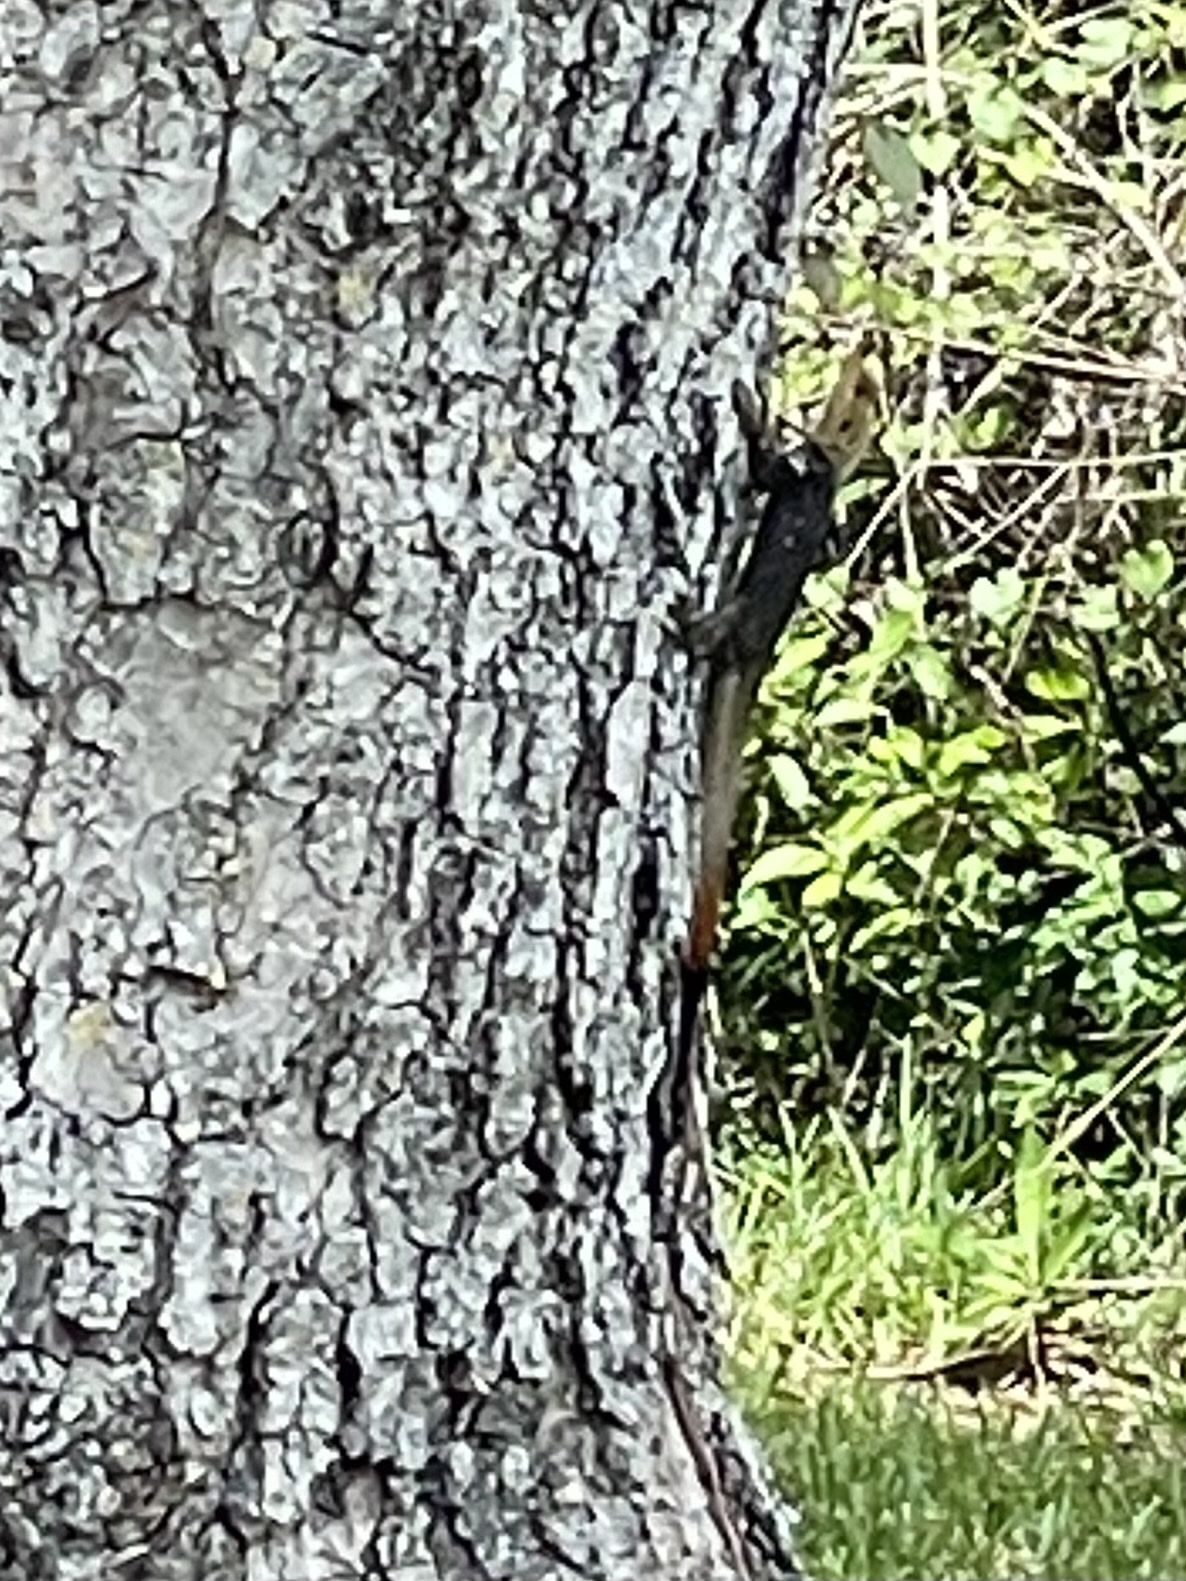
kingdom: Animalia
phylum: Chordata
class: Squamata
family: Agamidae
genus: Agama
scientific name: Agama picticauda
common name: Red-headed agama
